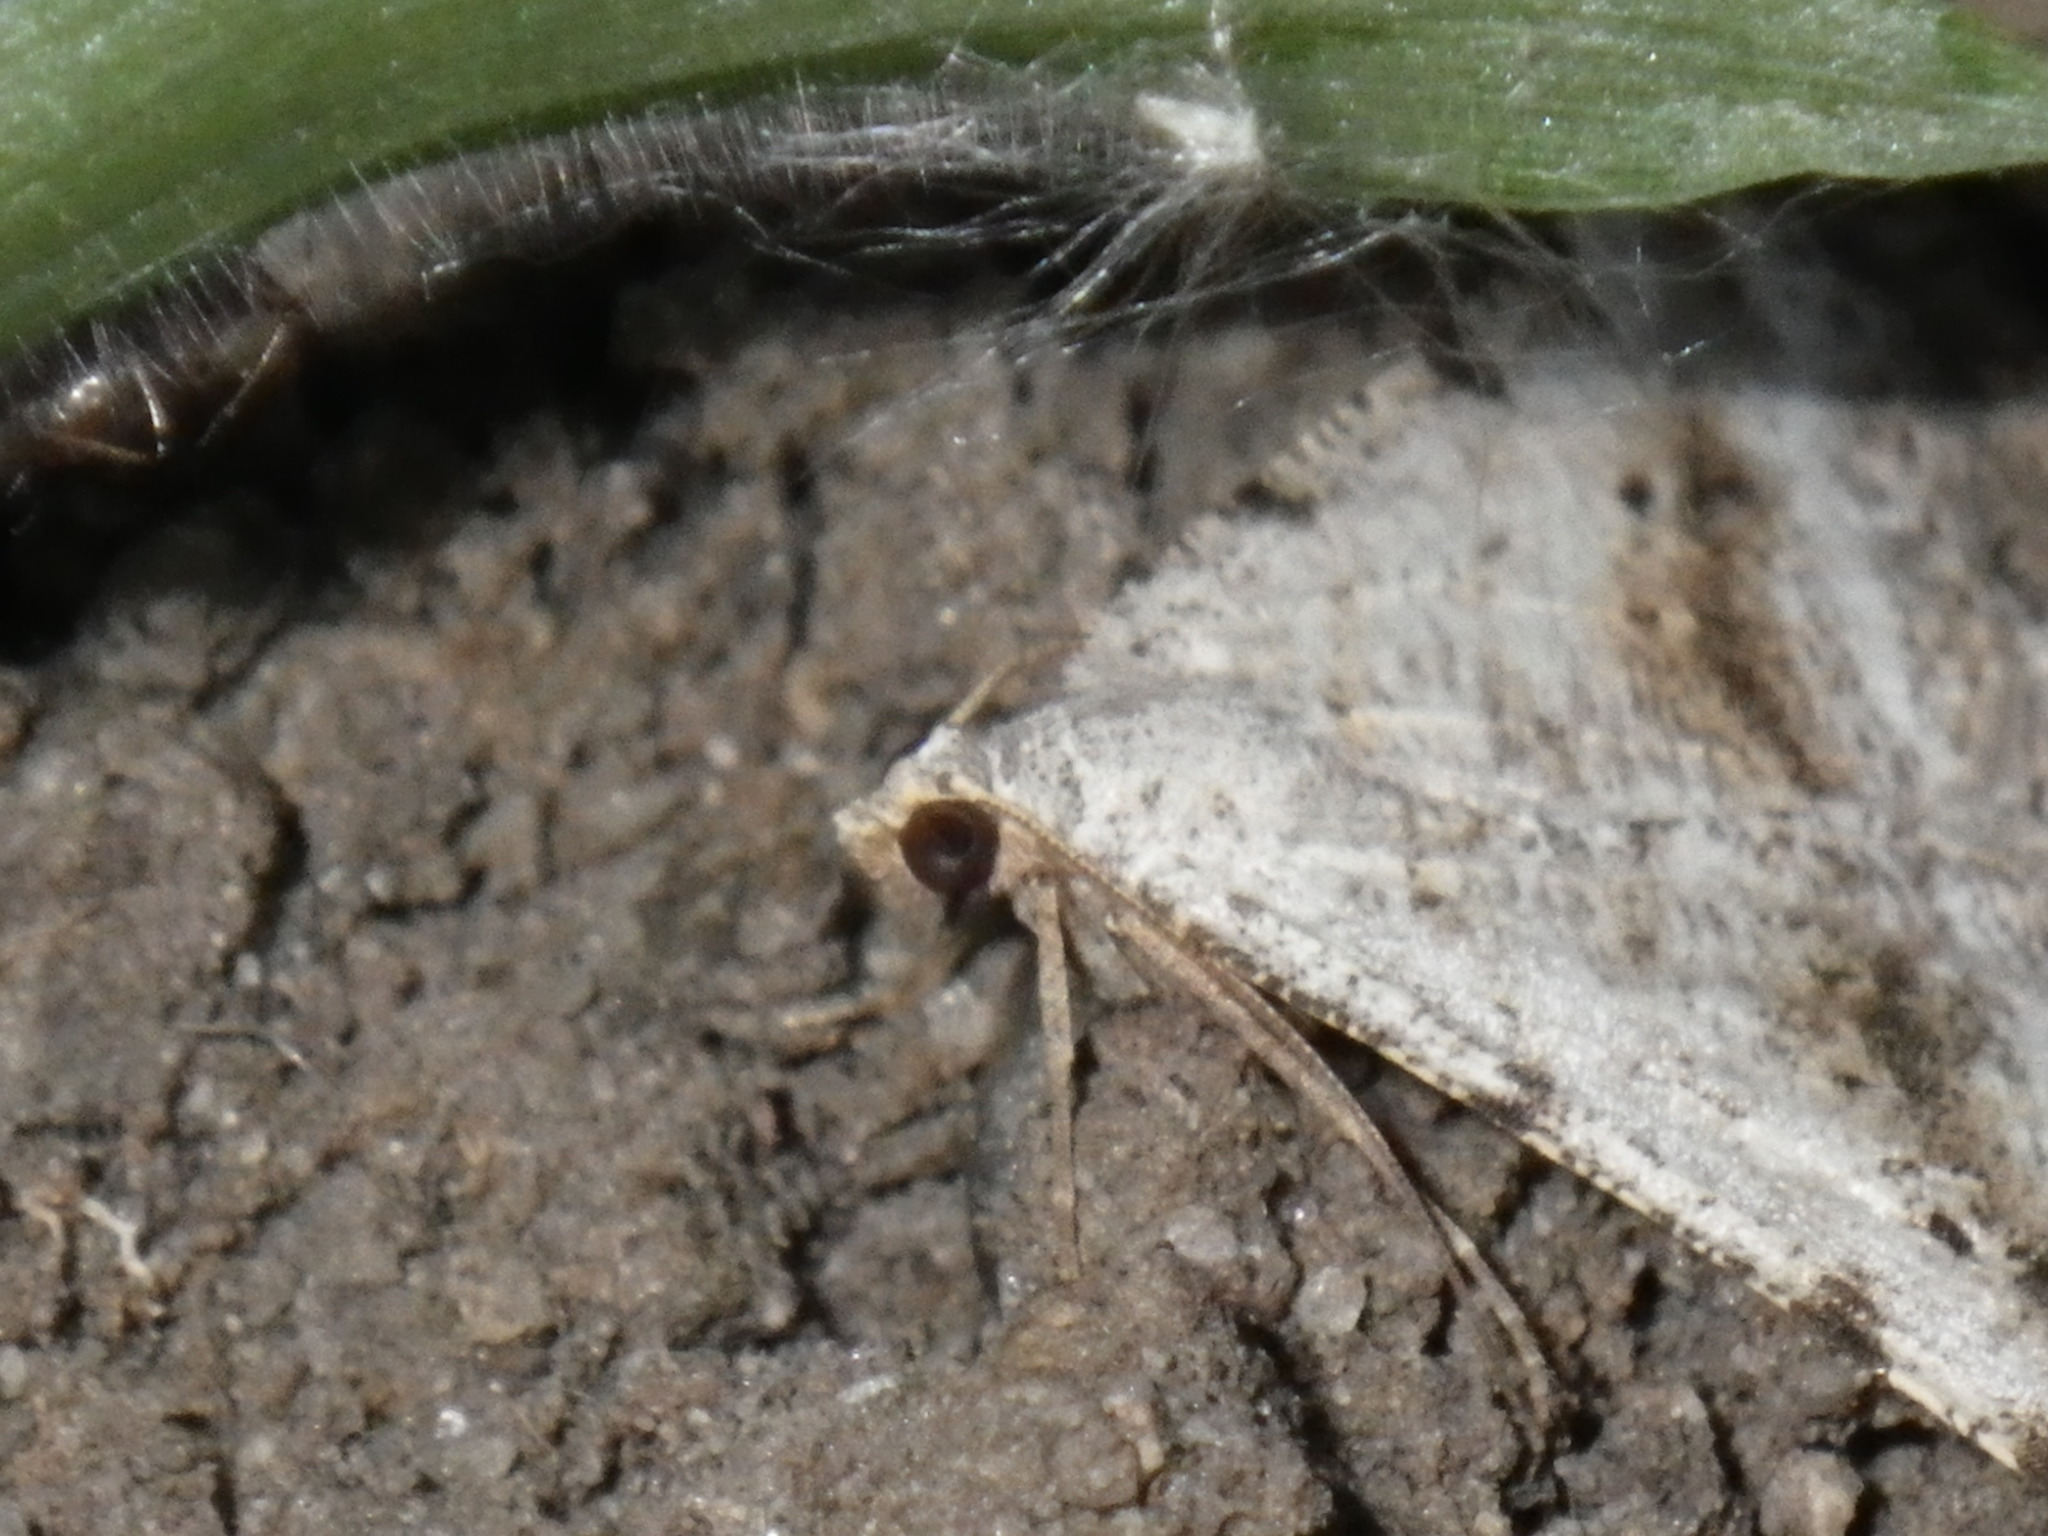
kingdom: Animalia
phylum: Arthropoda
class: Insecta
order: Lepidoptera
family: Geometridae
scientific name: Geometridae
